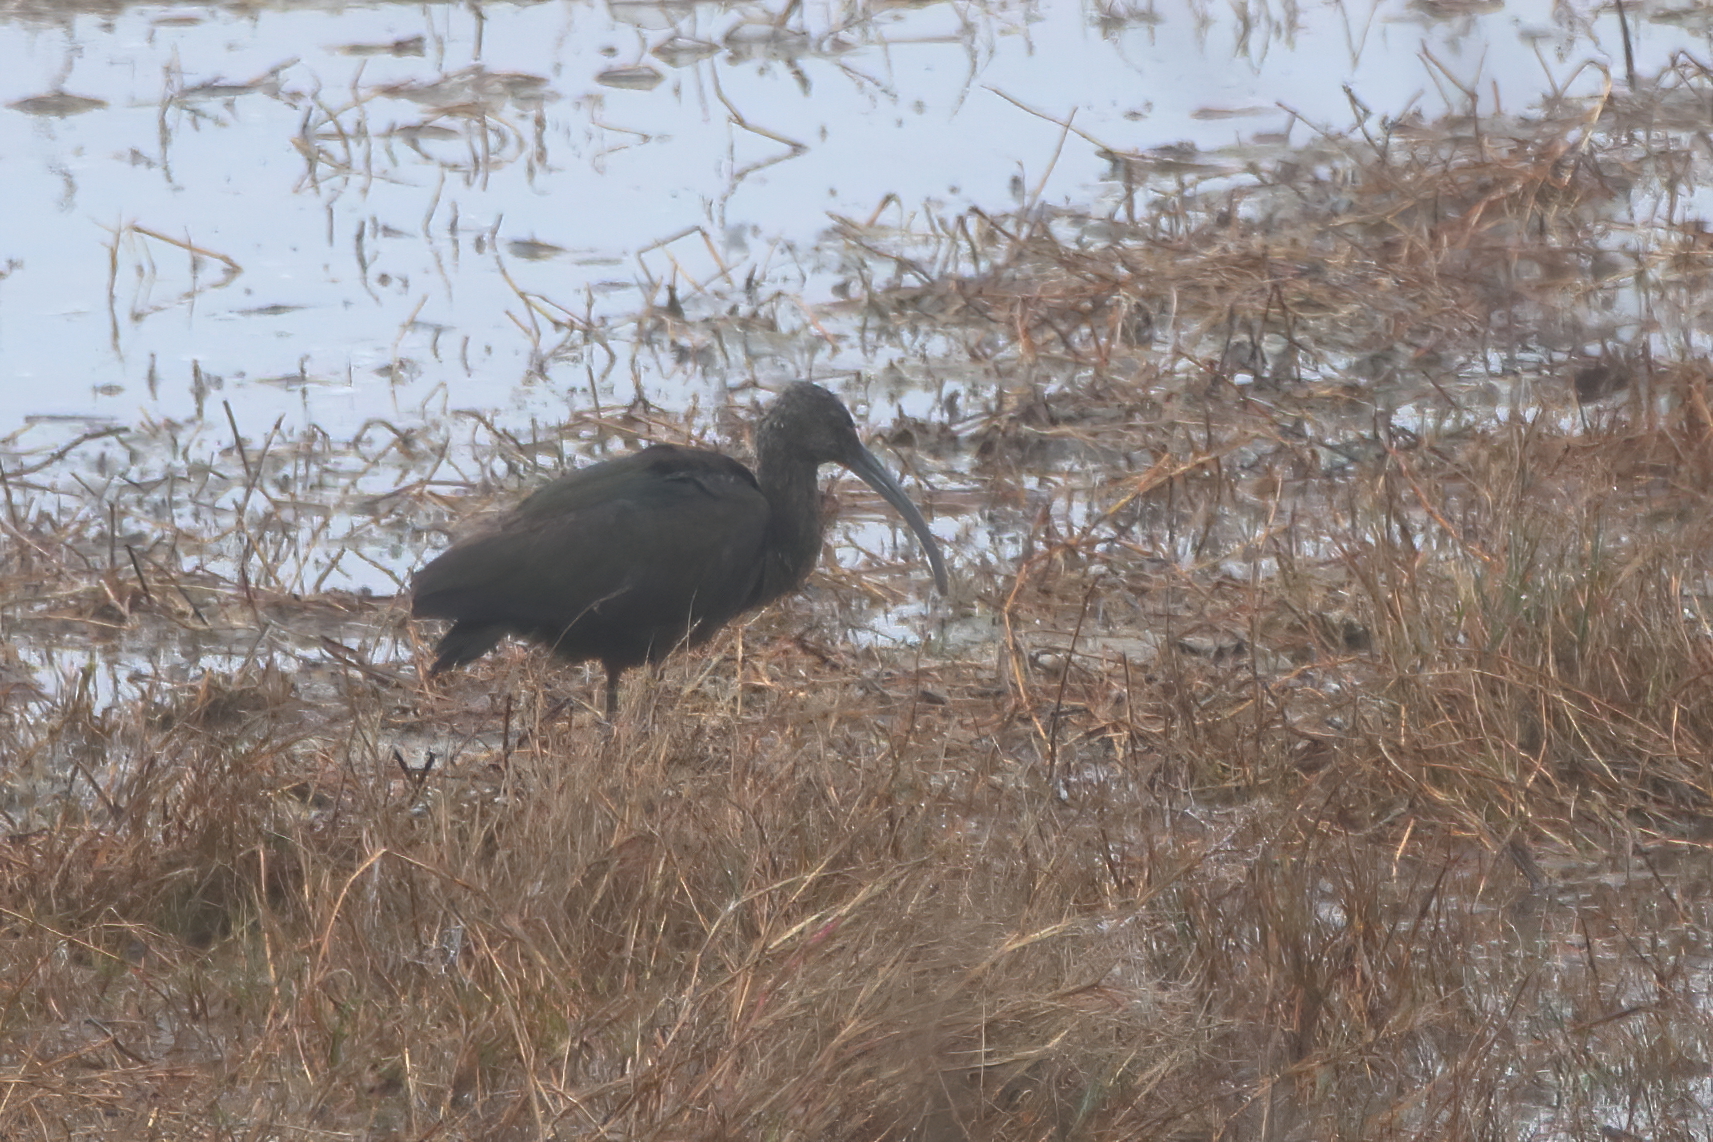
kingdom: Animalia
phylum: Chordata
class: Aves
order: Pelecaniformes
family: Threskiornithidae
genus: Plegadis
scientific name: Plegadis chihi
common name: White-faced ibis
